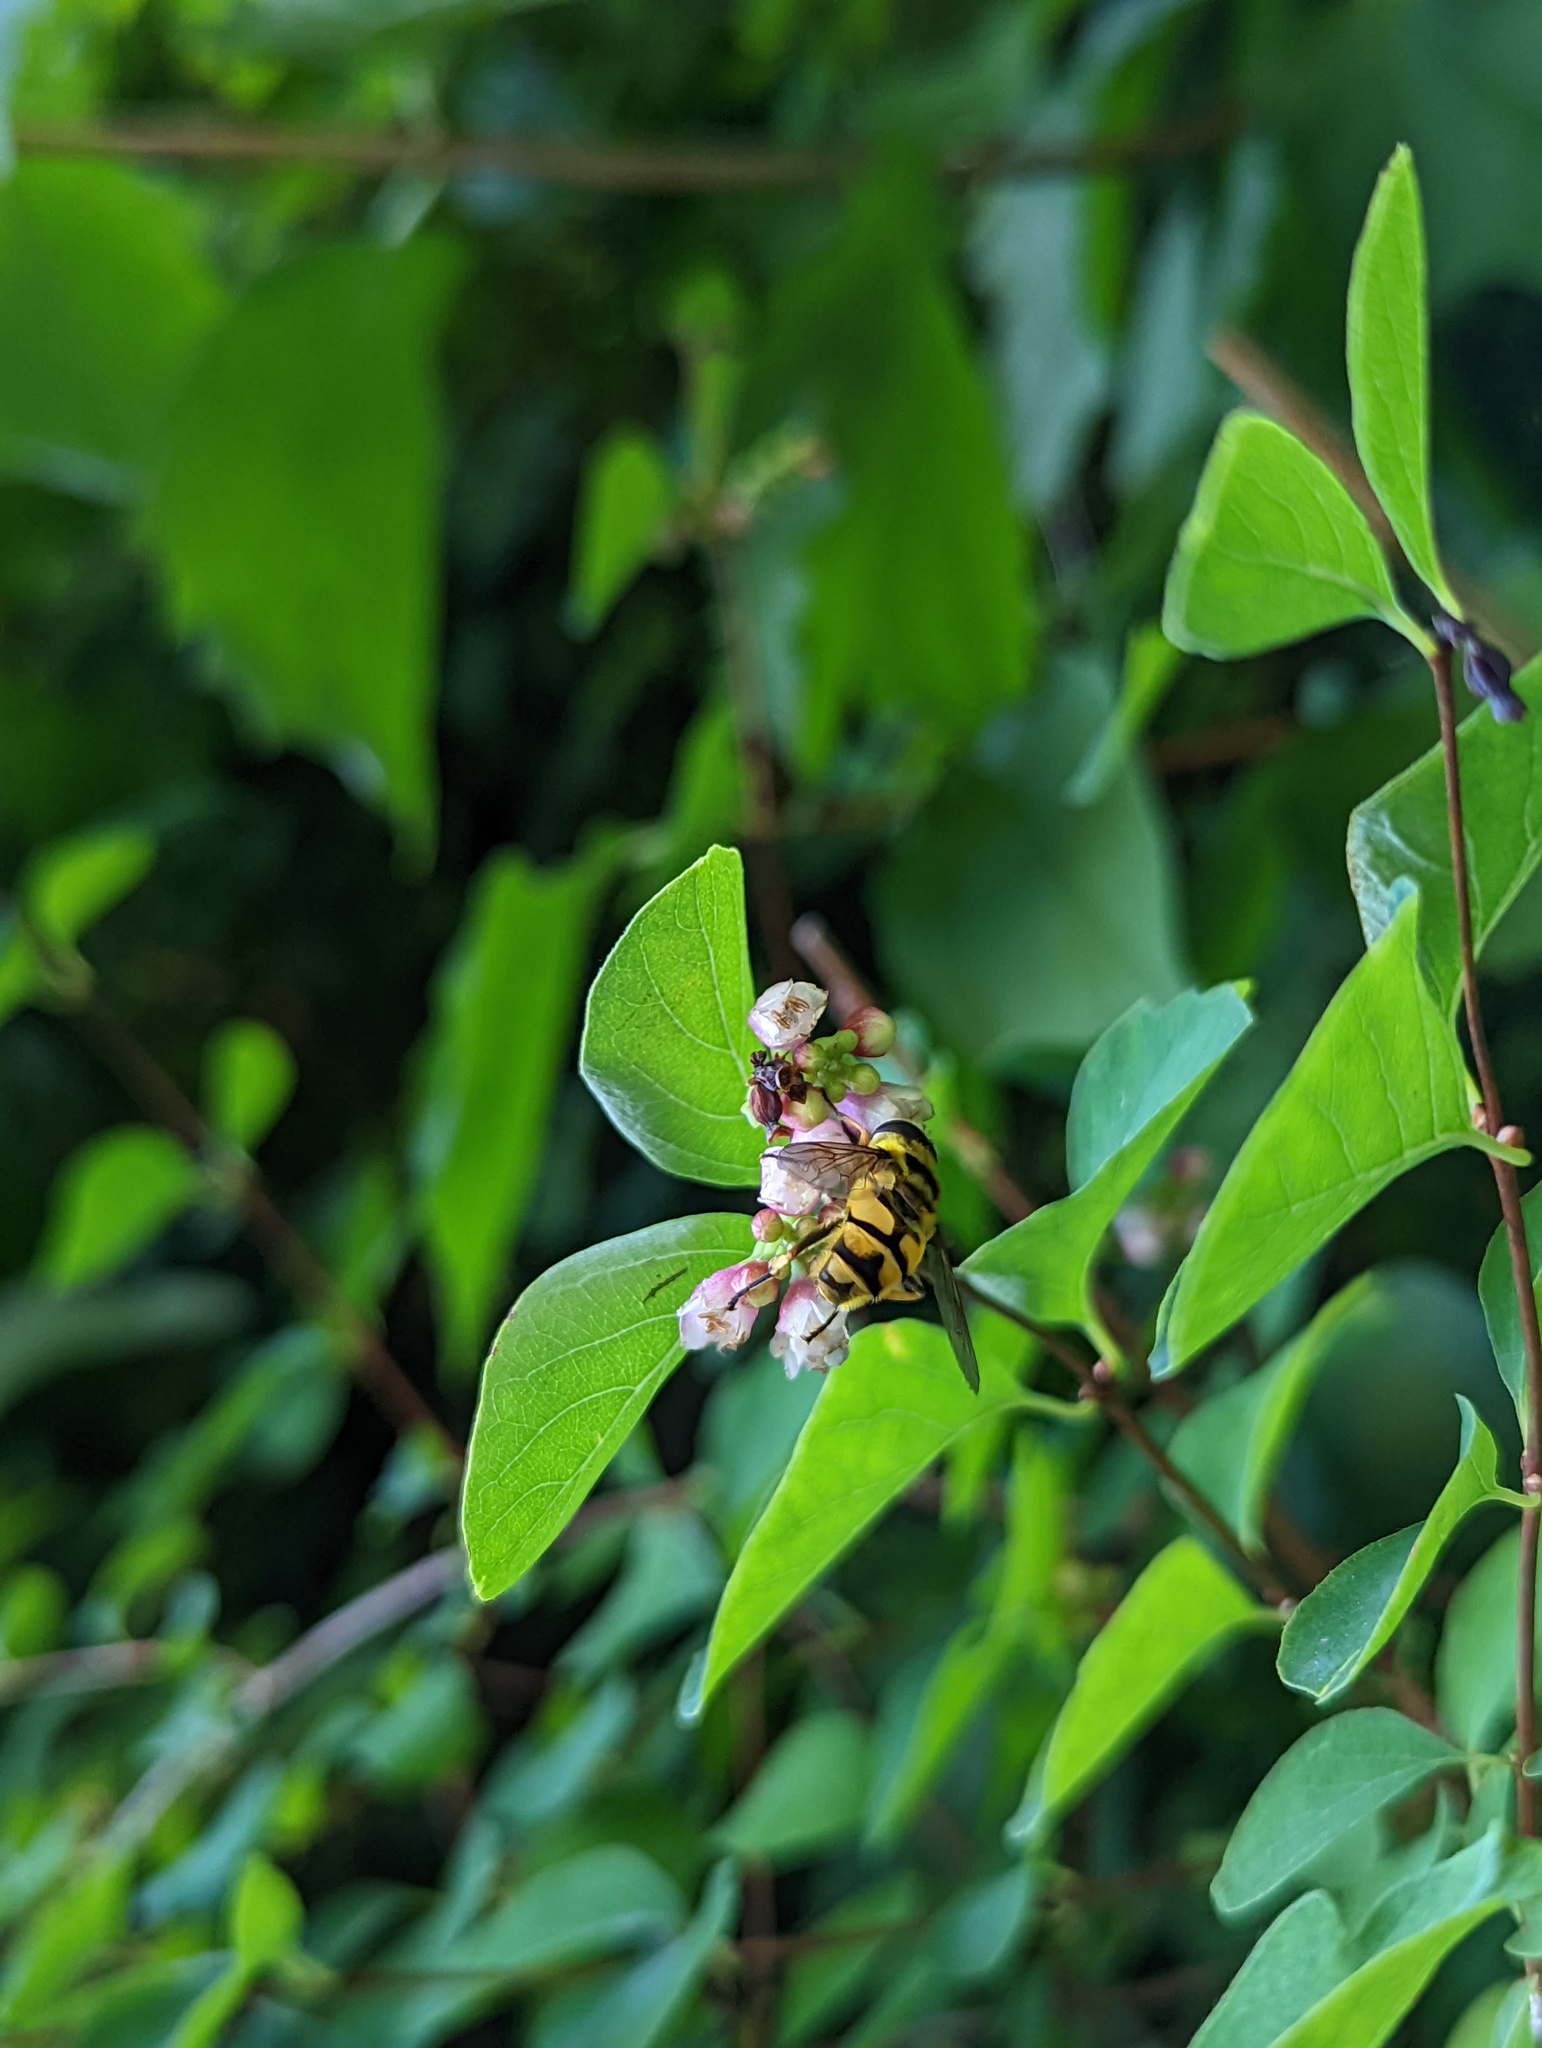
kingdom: Animalia
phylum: Arthropoda
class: Insecta
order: Diptera
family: Syrphidae
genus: Myathropa
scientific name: Myathropa florea
